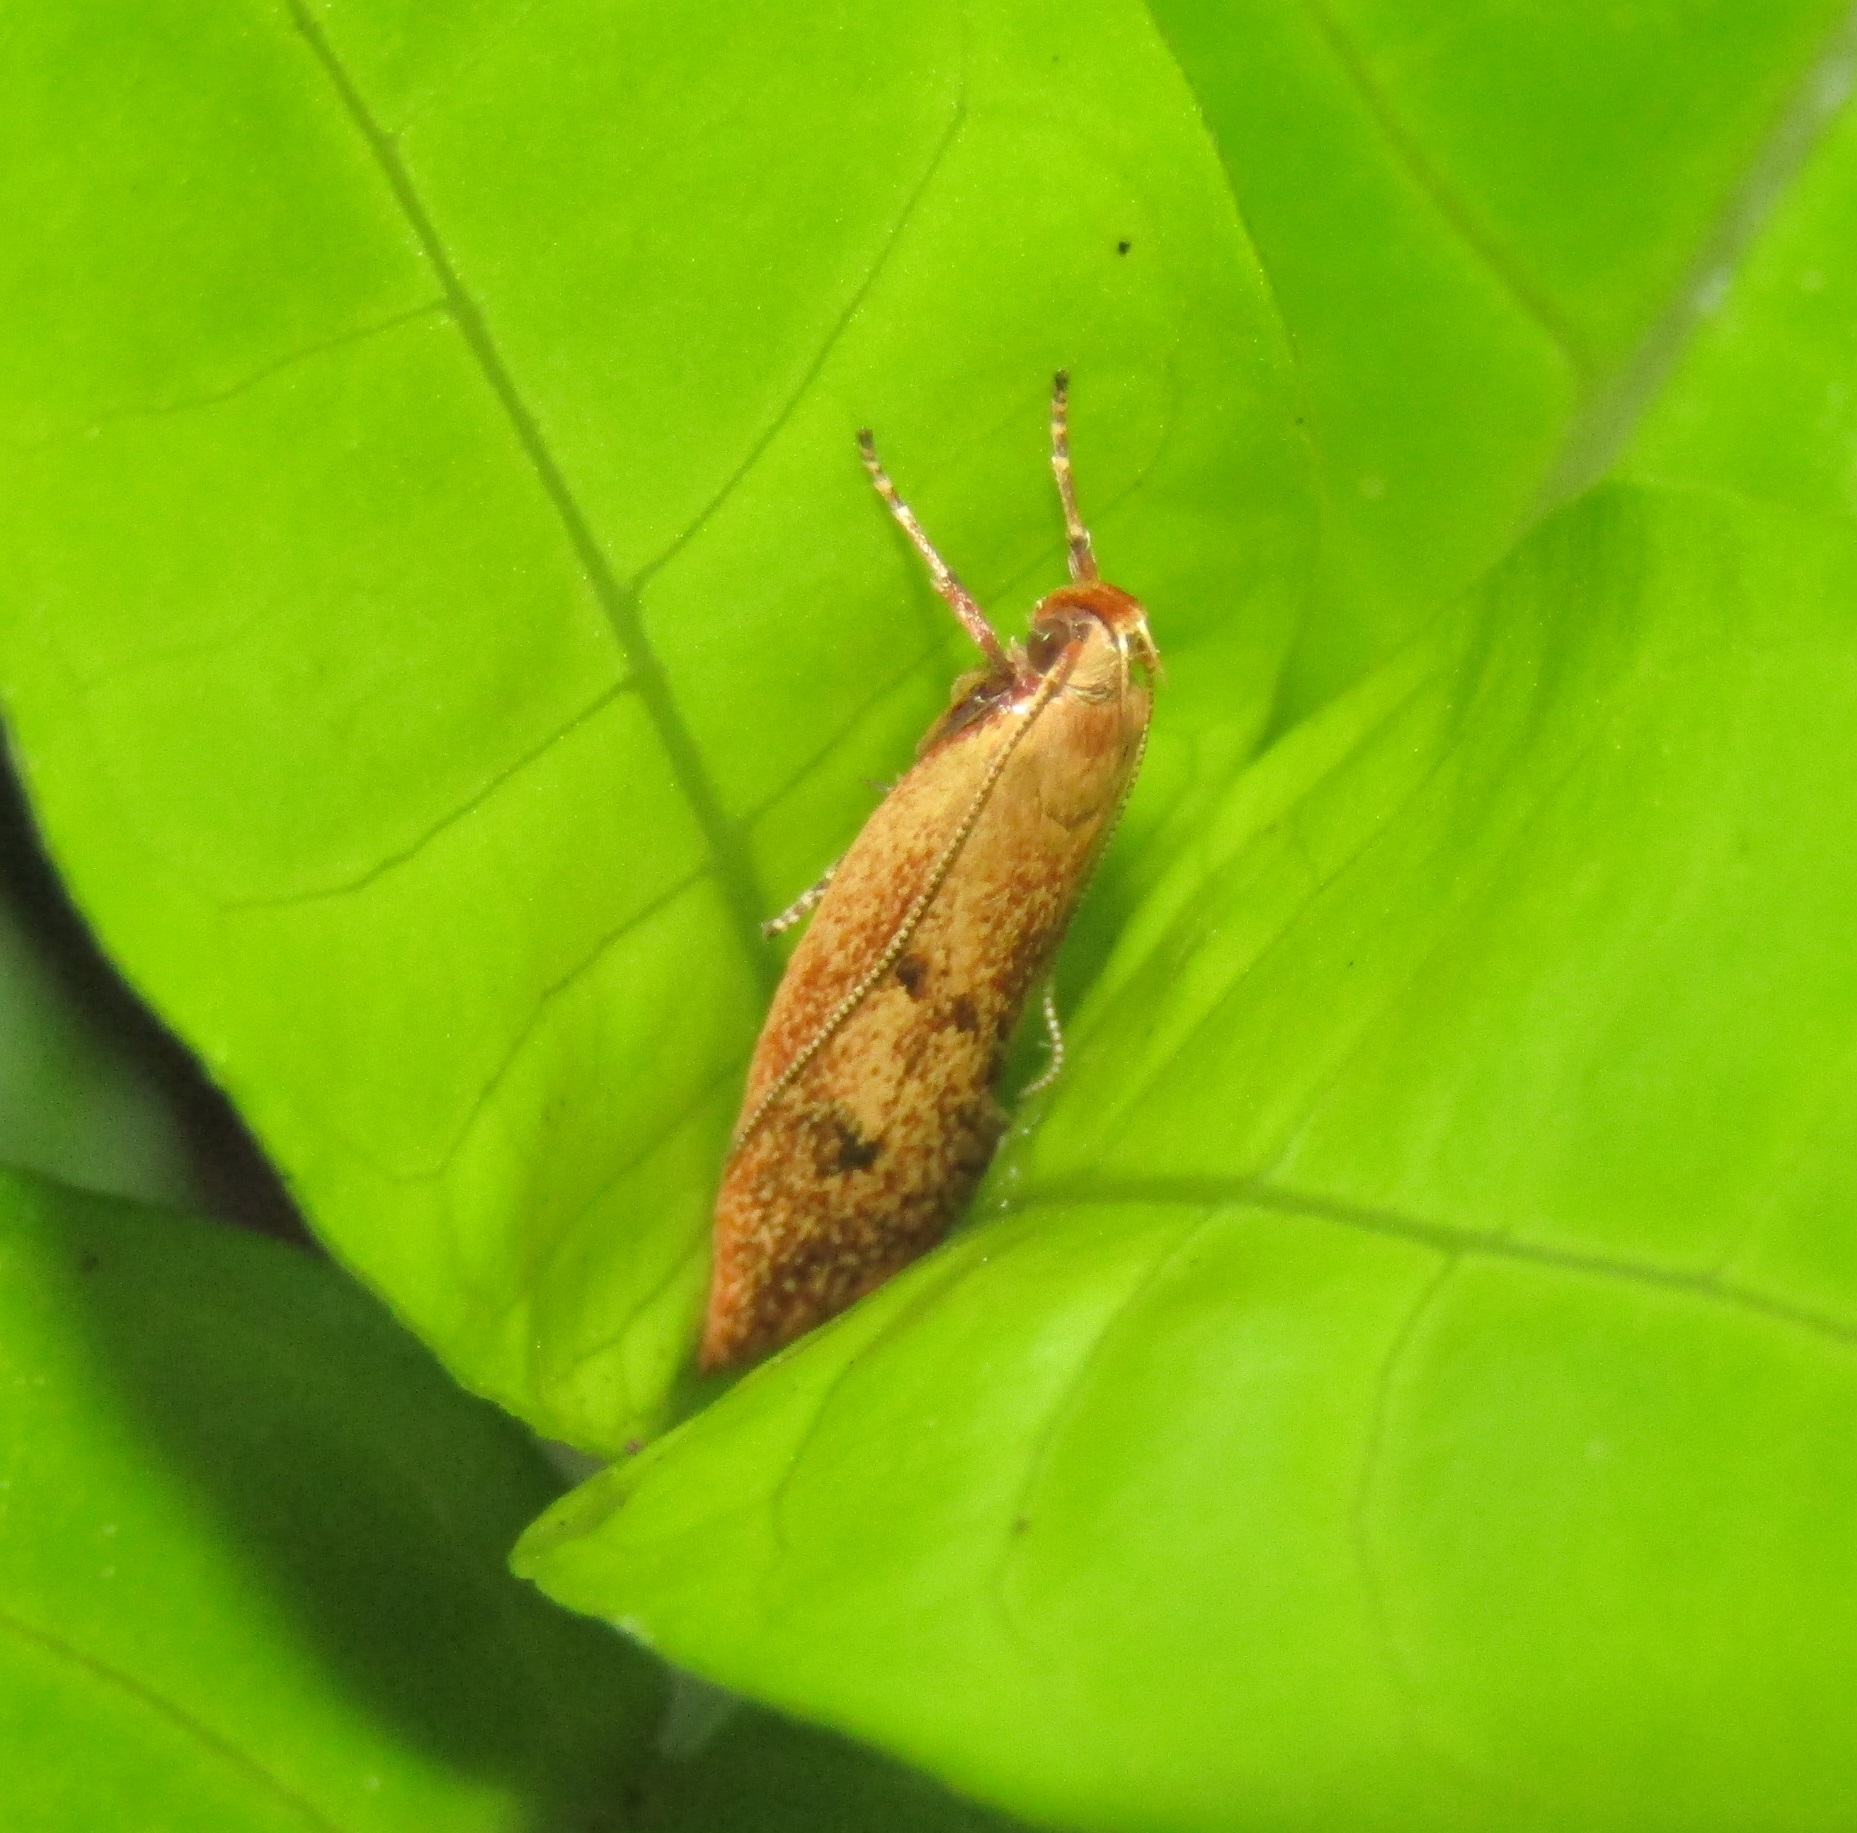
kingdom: Animalia
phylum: Arthropoda
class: Insecta
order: Lepidoptera
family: Oecophoridae
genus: Gymnobathra
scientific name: Gymnobathra sarcoxantha
